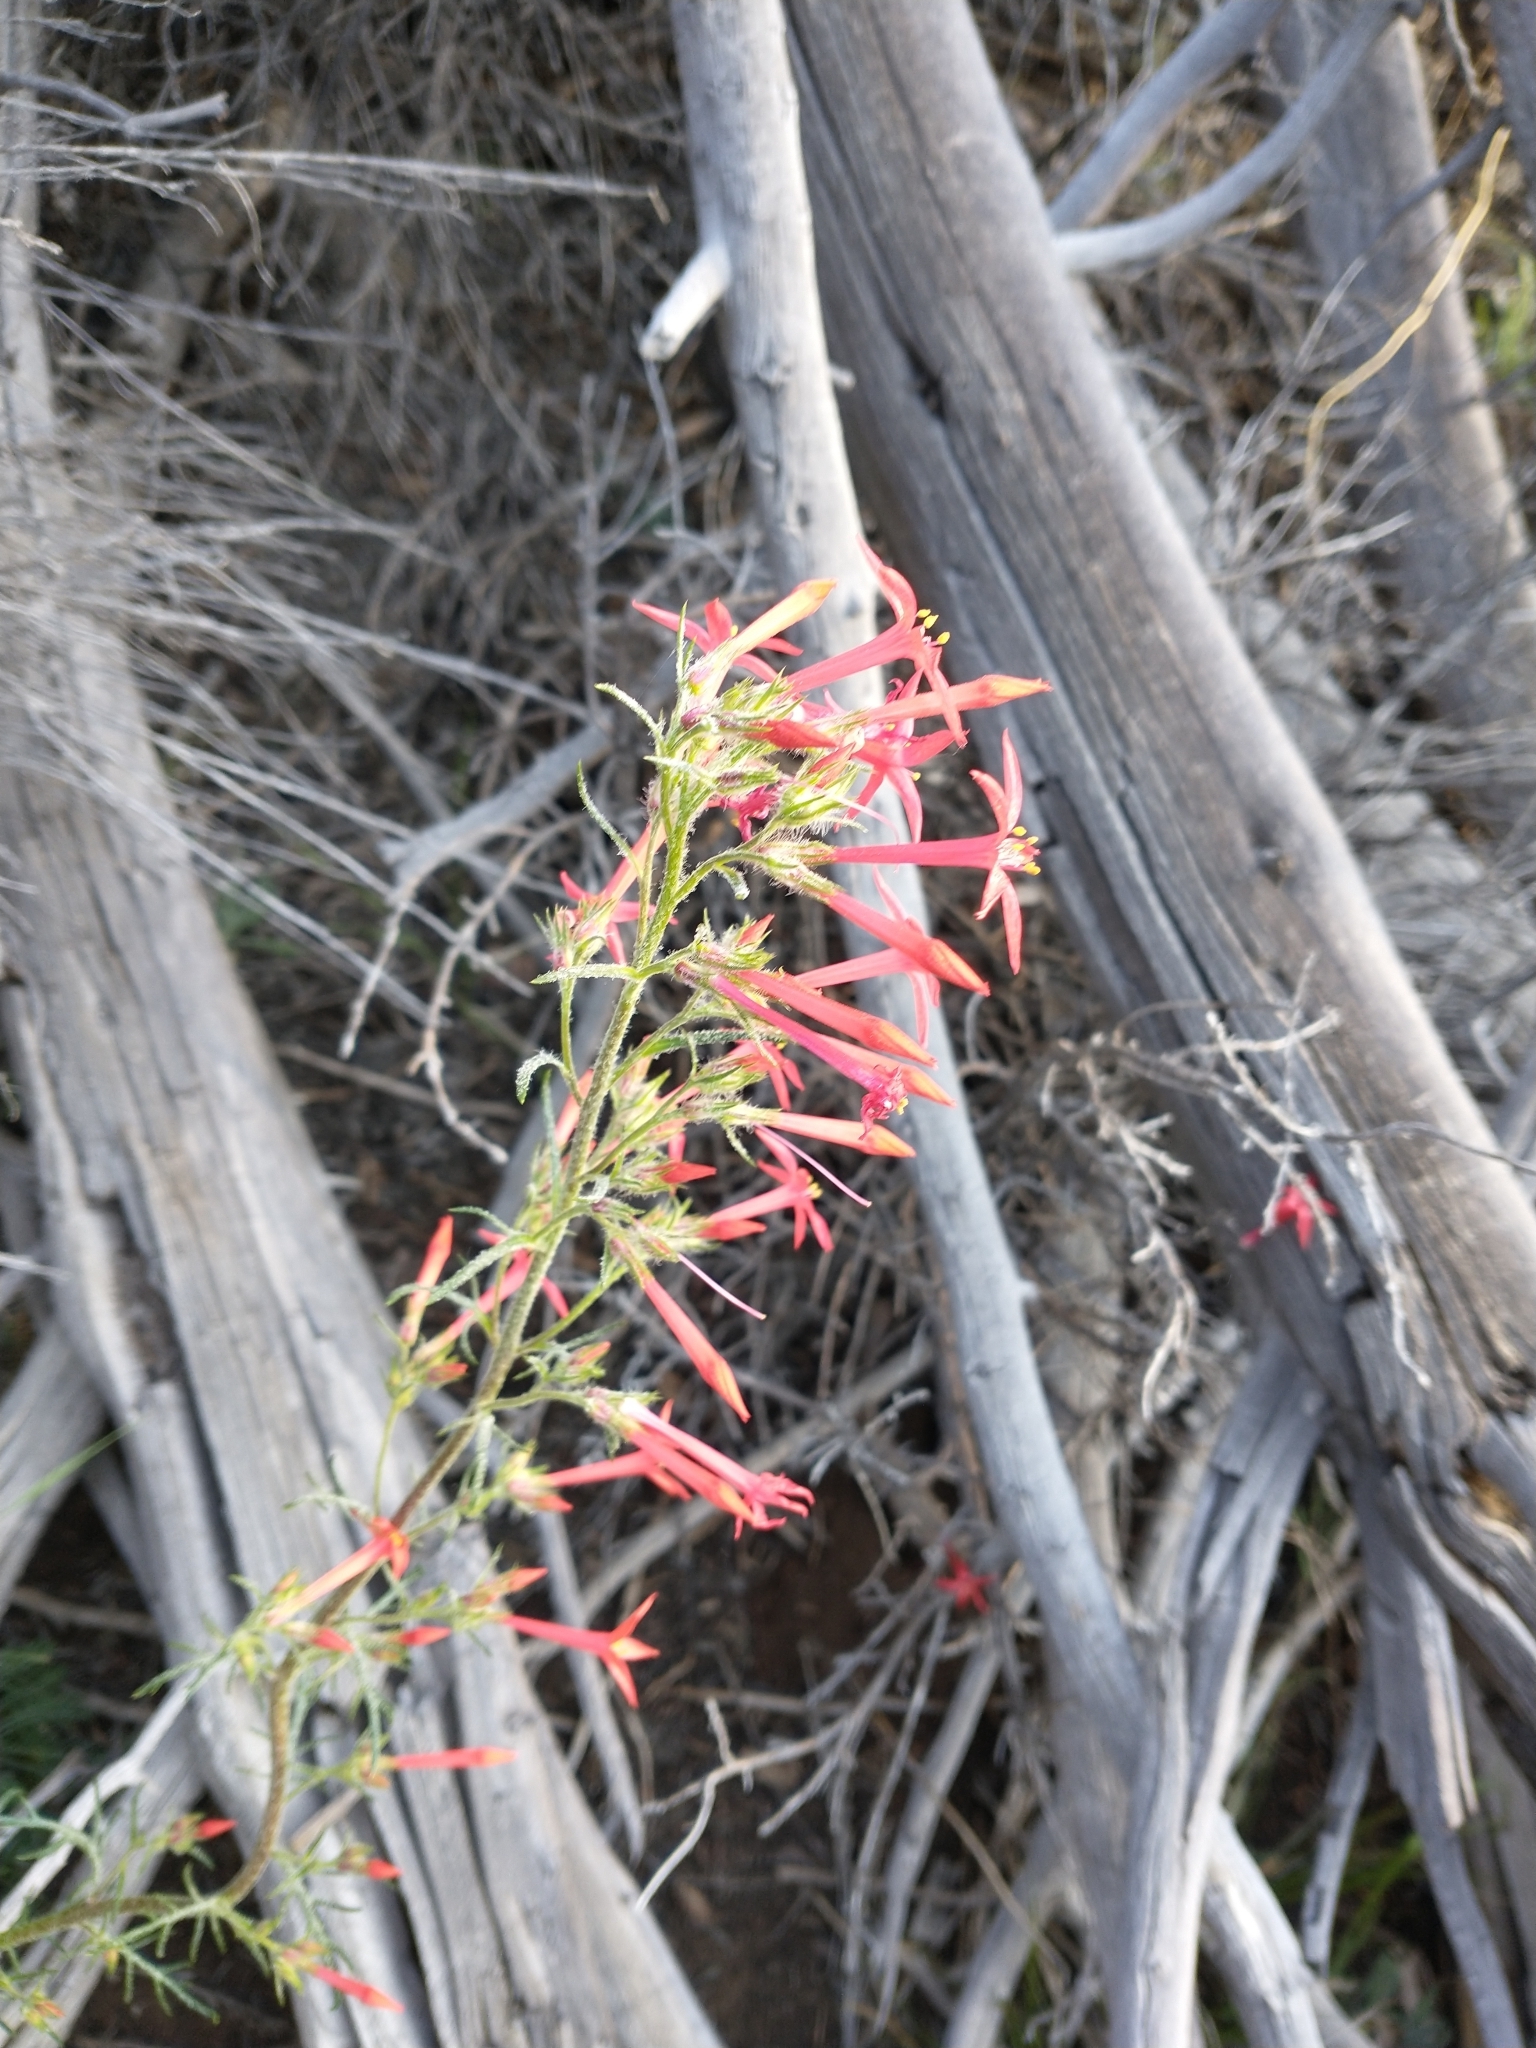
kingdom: Plantae
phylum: Tracheophyta
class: Magnoliopsida
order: Ericales
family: Polemoniaceae
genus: Ipomopsis
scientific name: Ipomopsis aggregata
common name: Scarlet gilia
